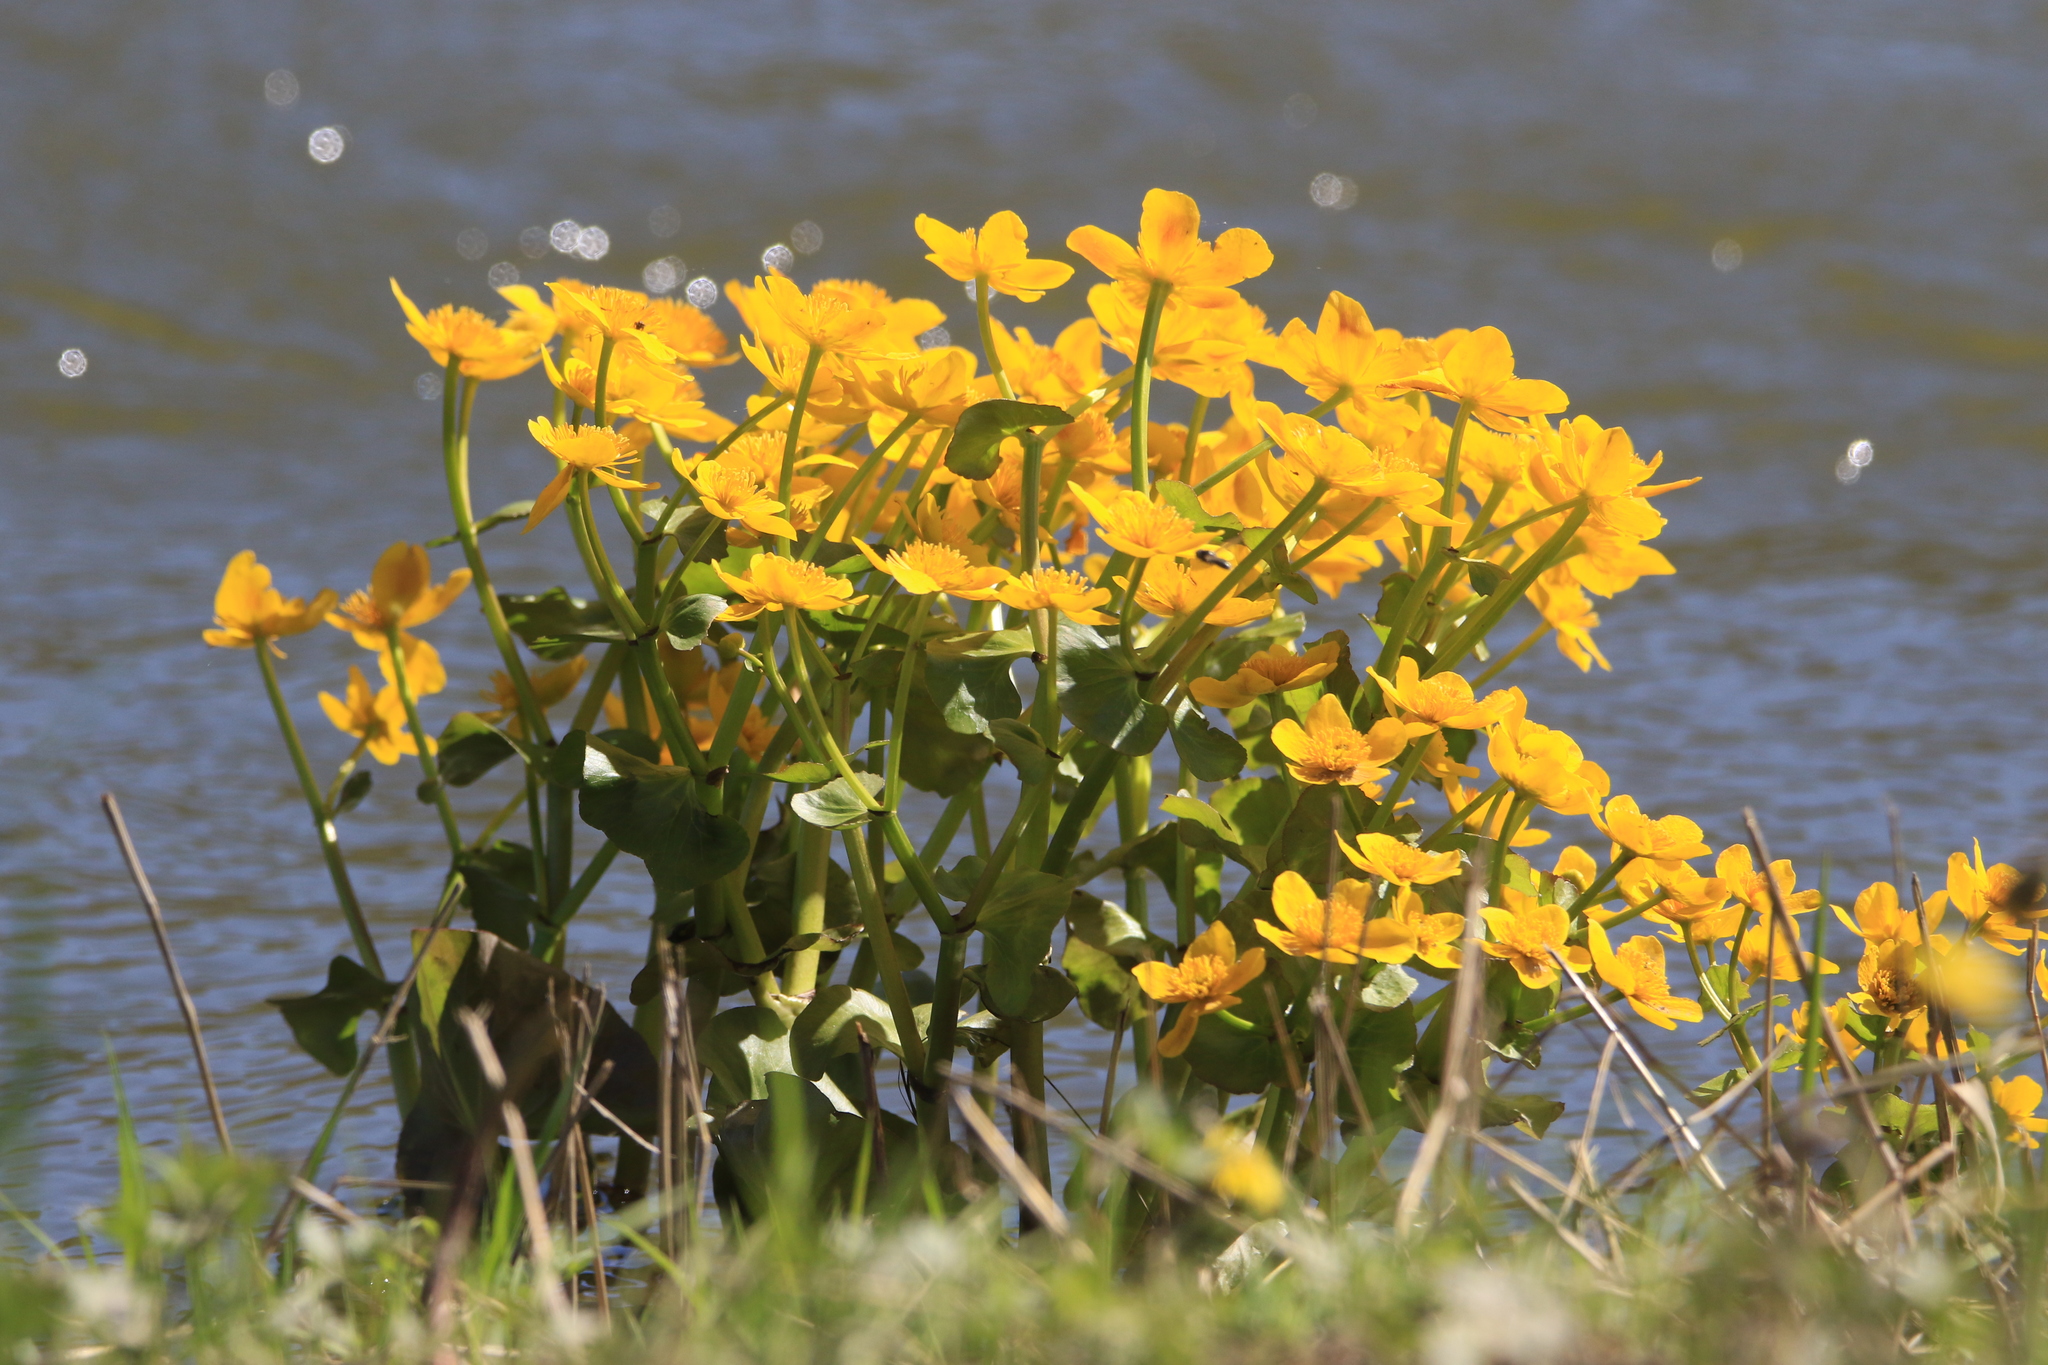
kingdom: Plantae
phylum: Tracheophyta
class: Magnoliopsida
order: Ranunculales
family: Ranunculaceae
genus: Caltha
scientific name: Caltha palustris
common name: Marsh marigold
